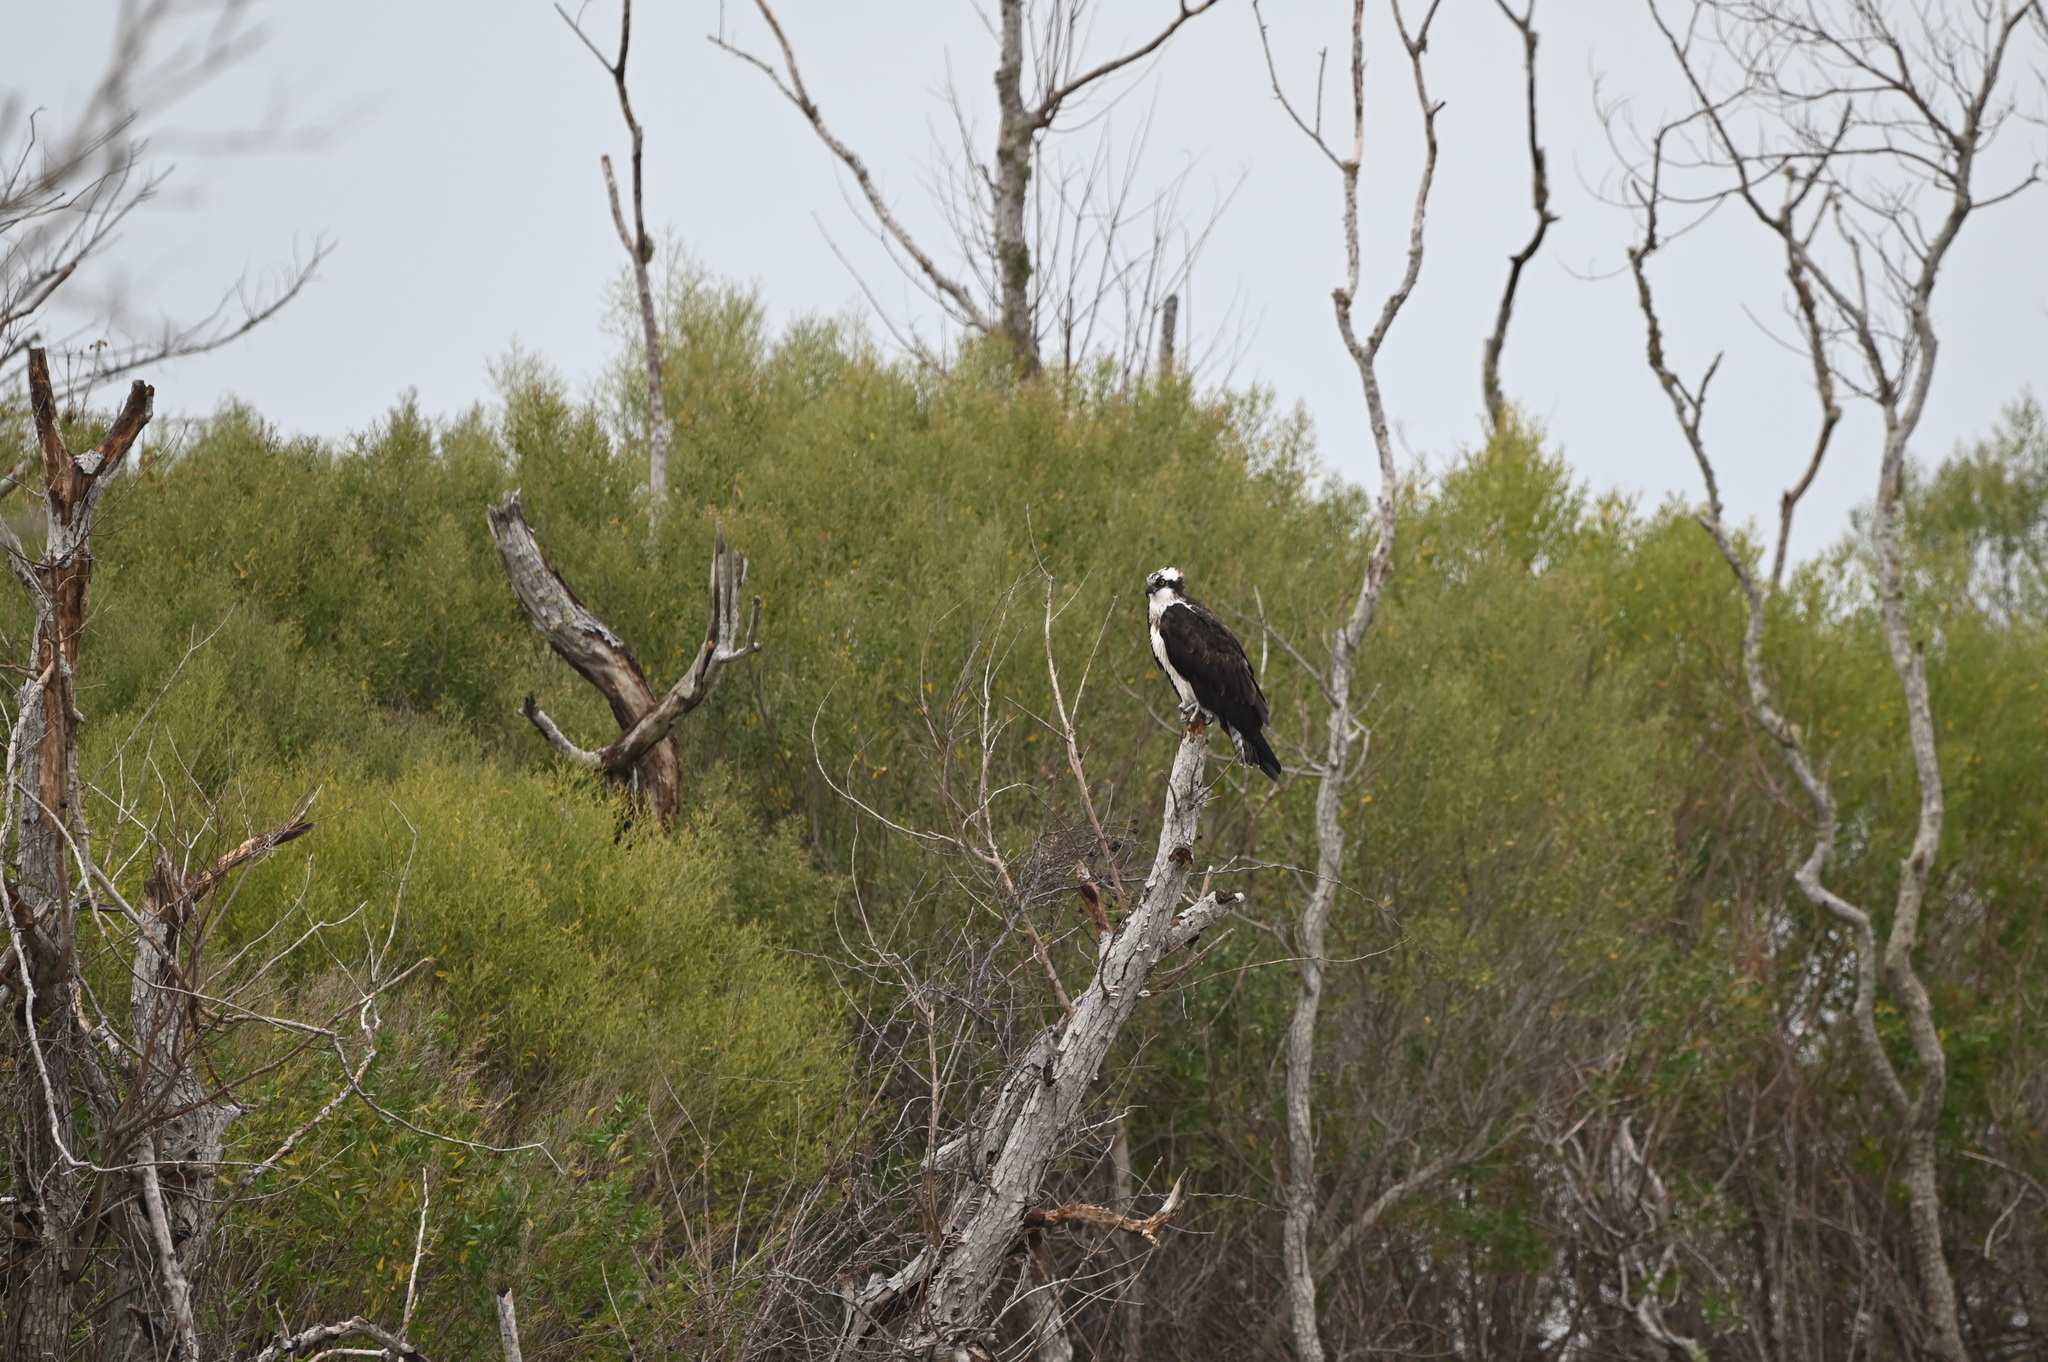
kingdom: Animalia
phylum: Chordata
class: Aves
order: Accipitriformes
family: Pandionidae
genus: Pandion
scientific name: Pandion haliaetus
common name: Osprey
